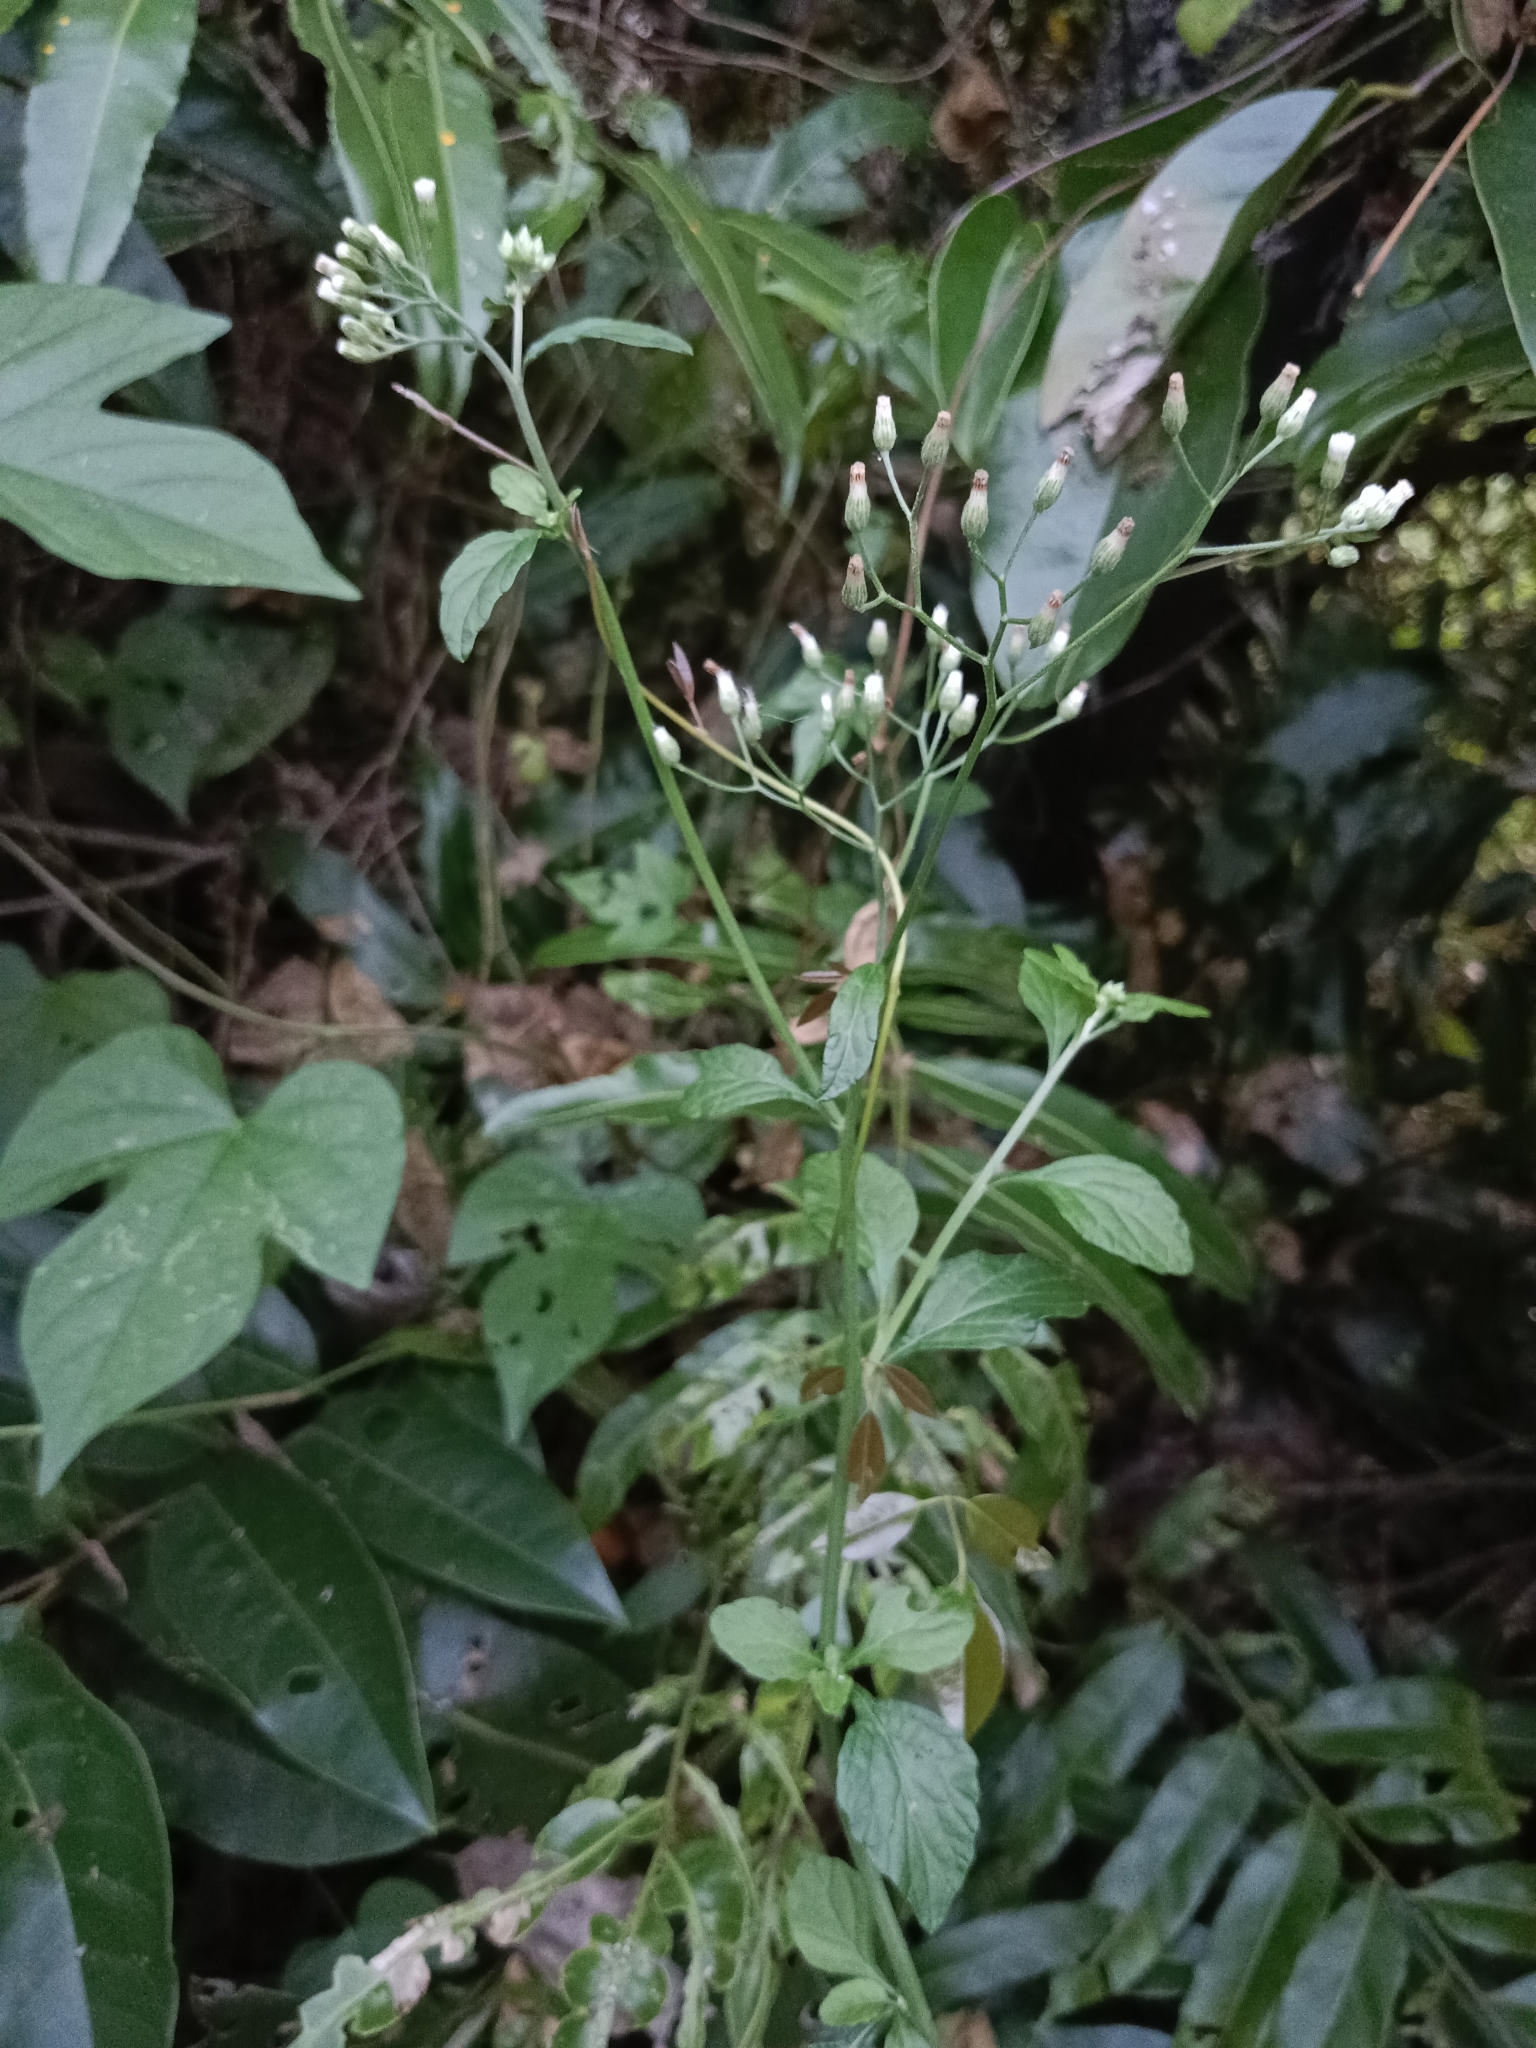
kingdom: Plantae
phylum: Tracheophyta
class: Magnoliopsida
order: Asterales
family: Asteraceae
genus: Cyanthillium
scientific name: Cyanthillium cinereum
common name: Little ironweed
